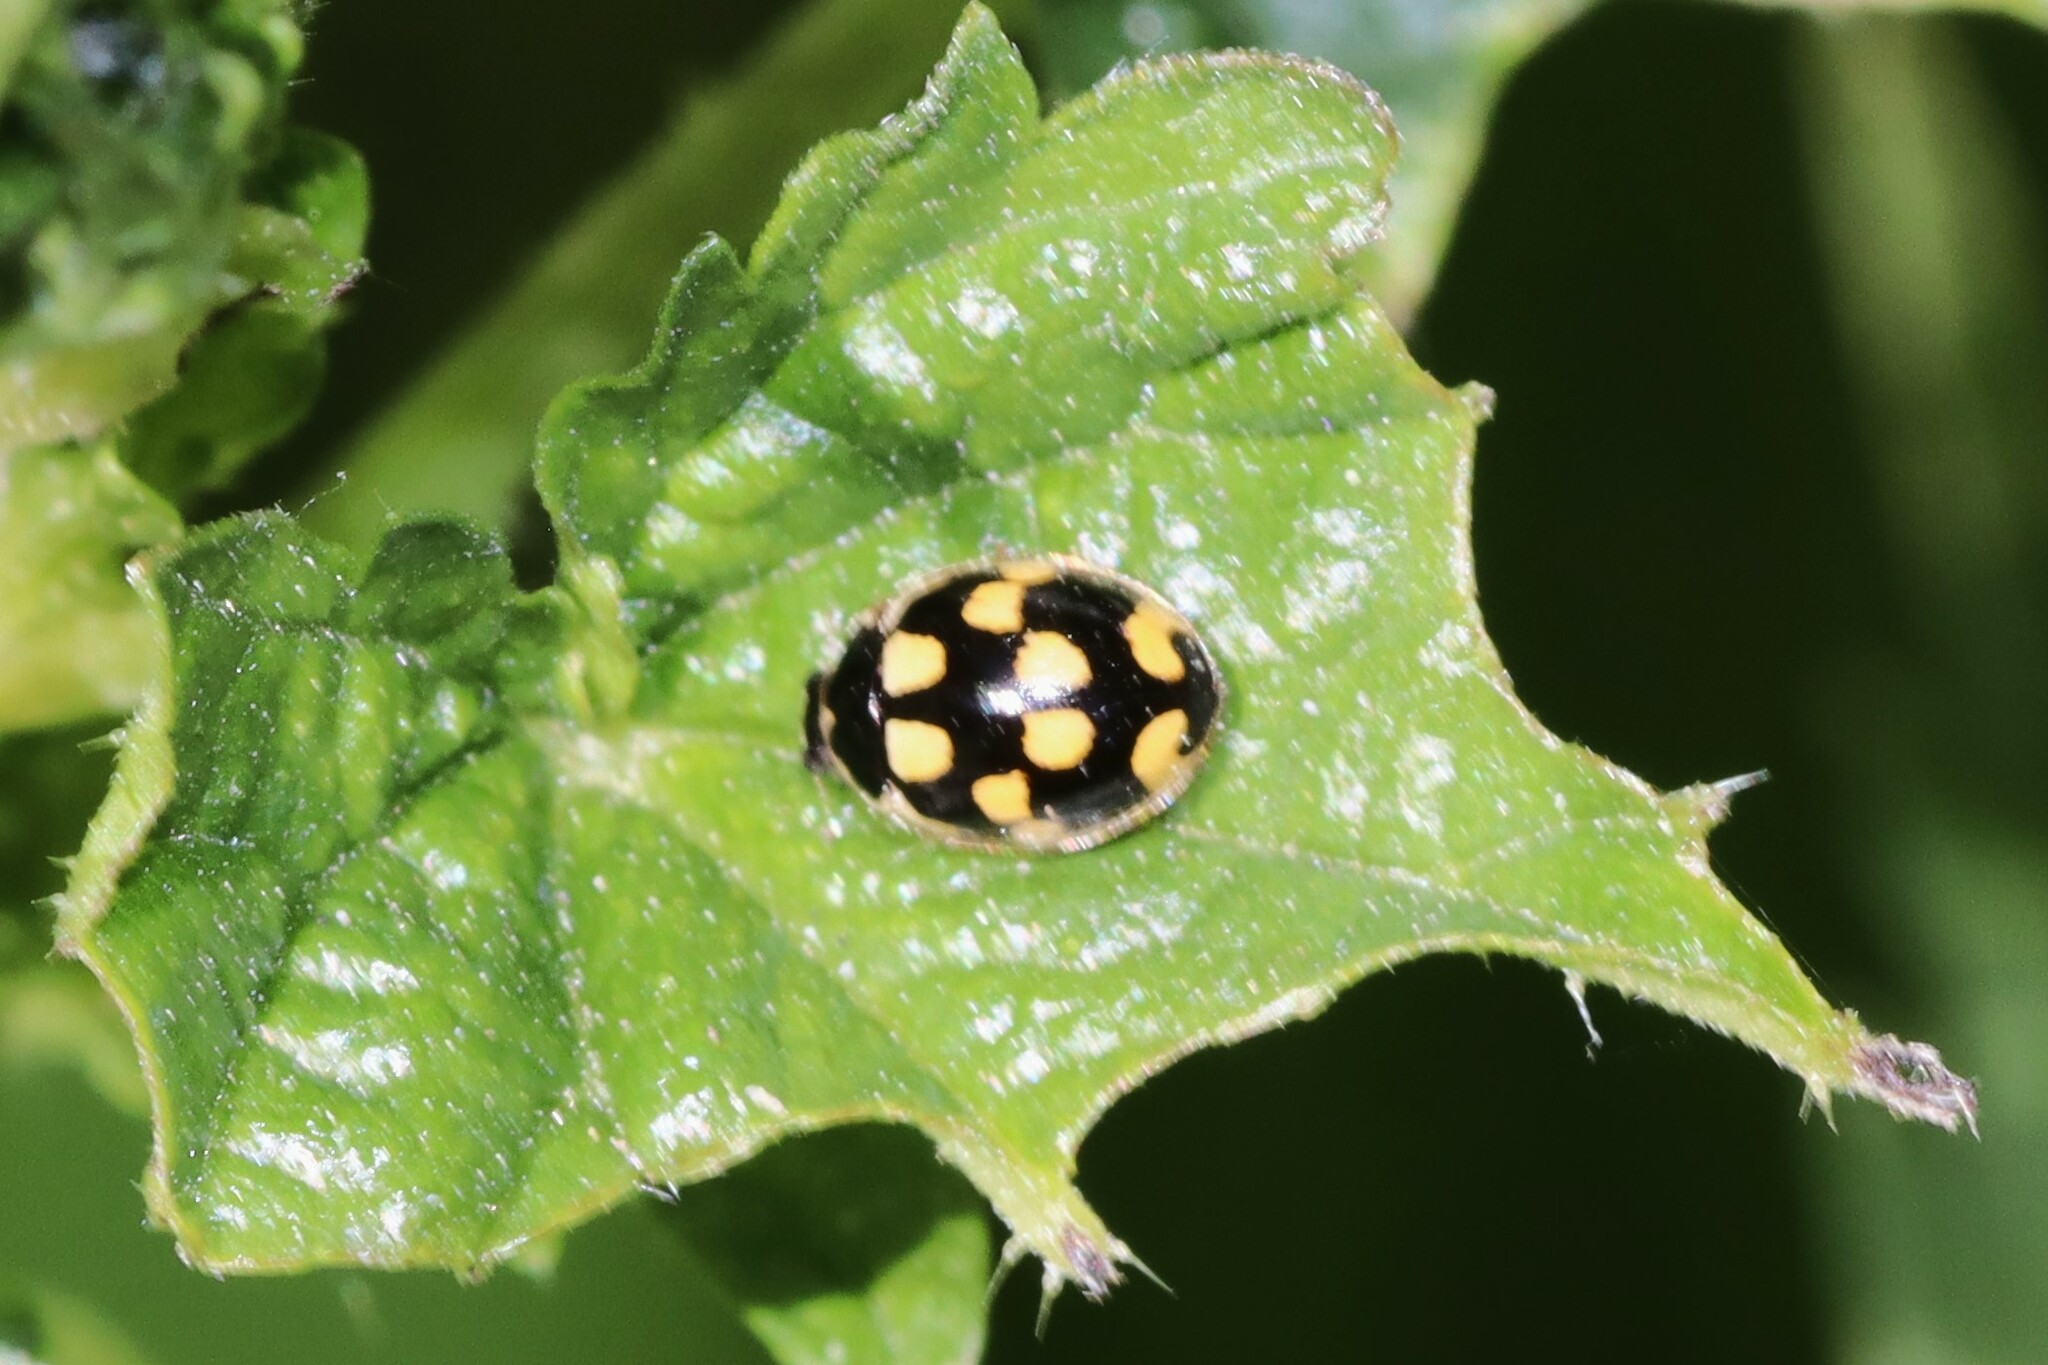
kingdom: Animalia
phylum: Arthropoda
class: Insecta
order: Coleoptera
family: Coccinellidae
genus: Propylaea
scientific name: Propylaea quatuordecimpunctata
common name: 14-spotted ladybird beetle
